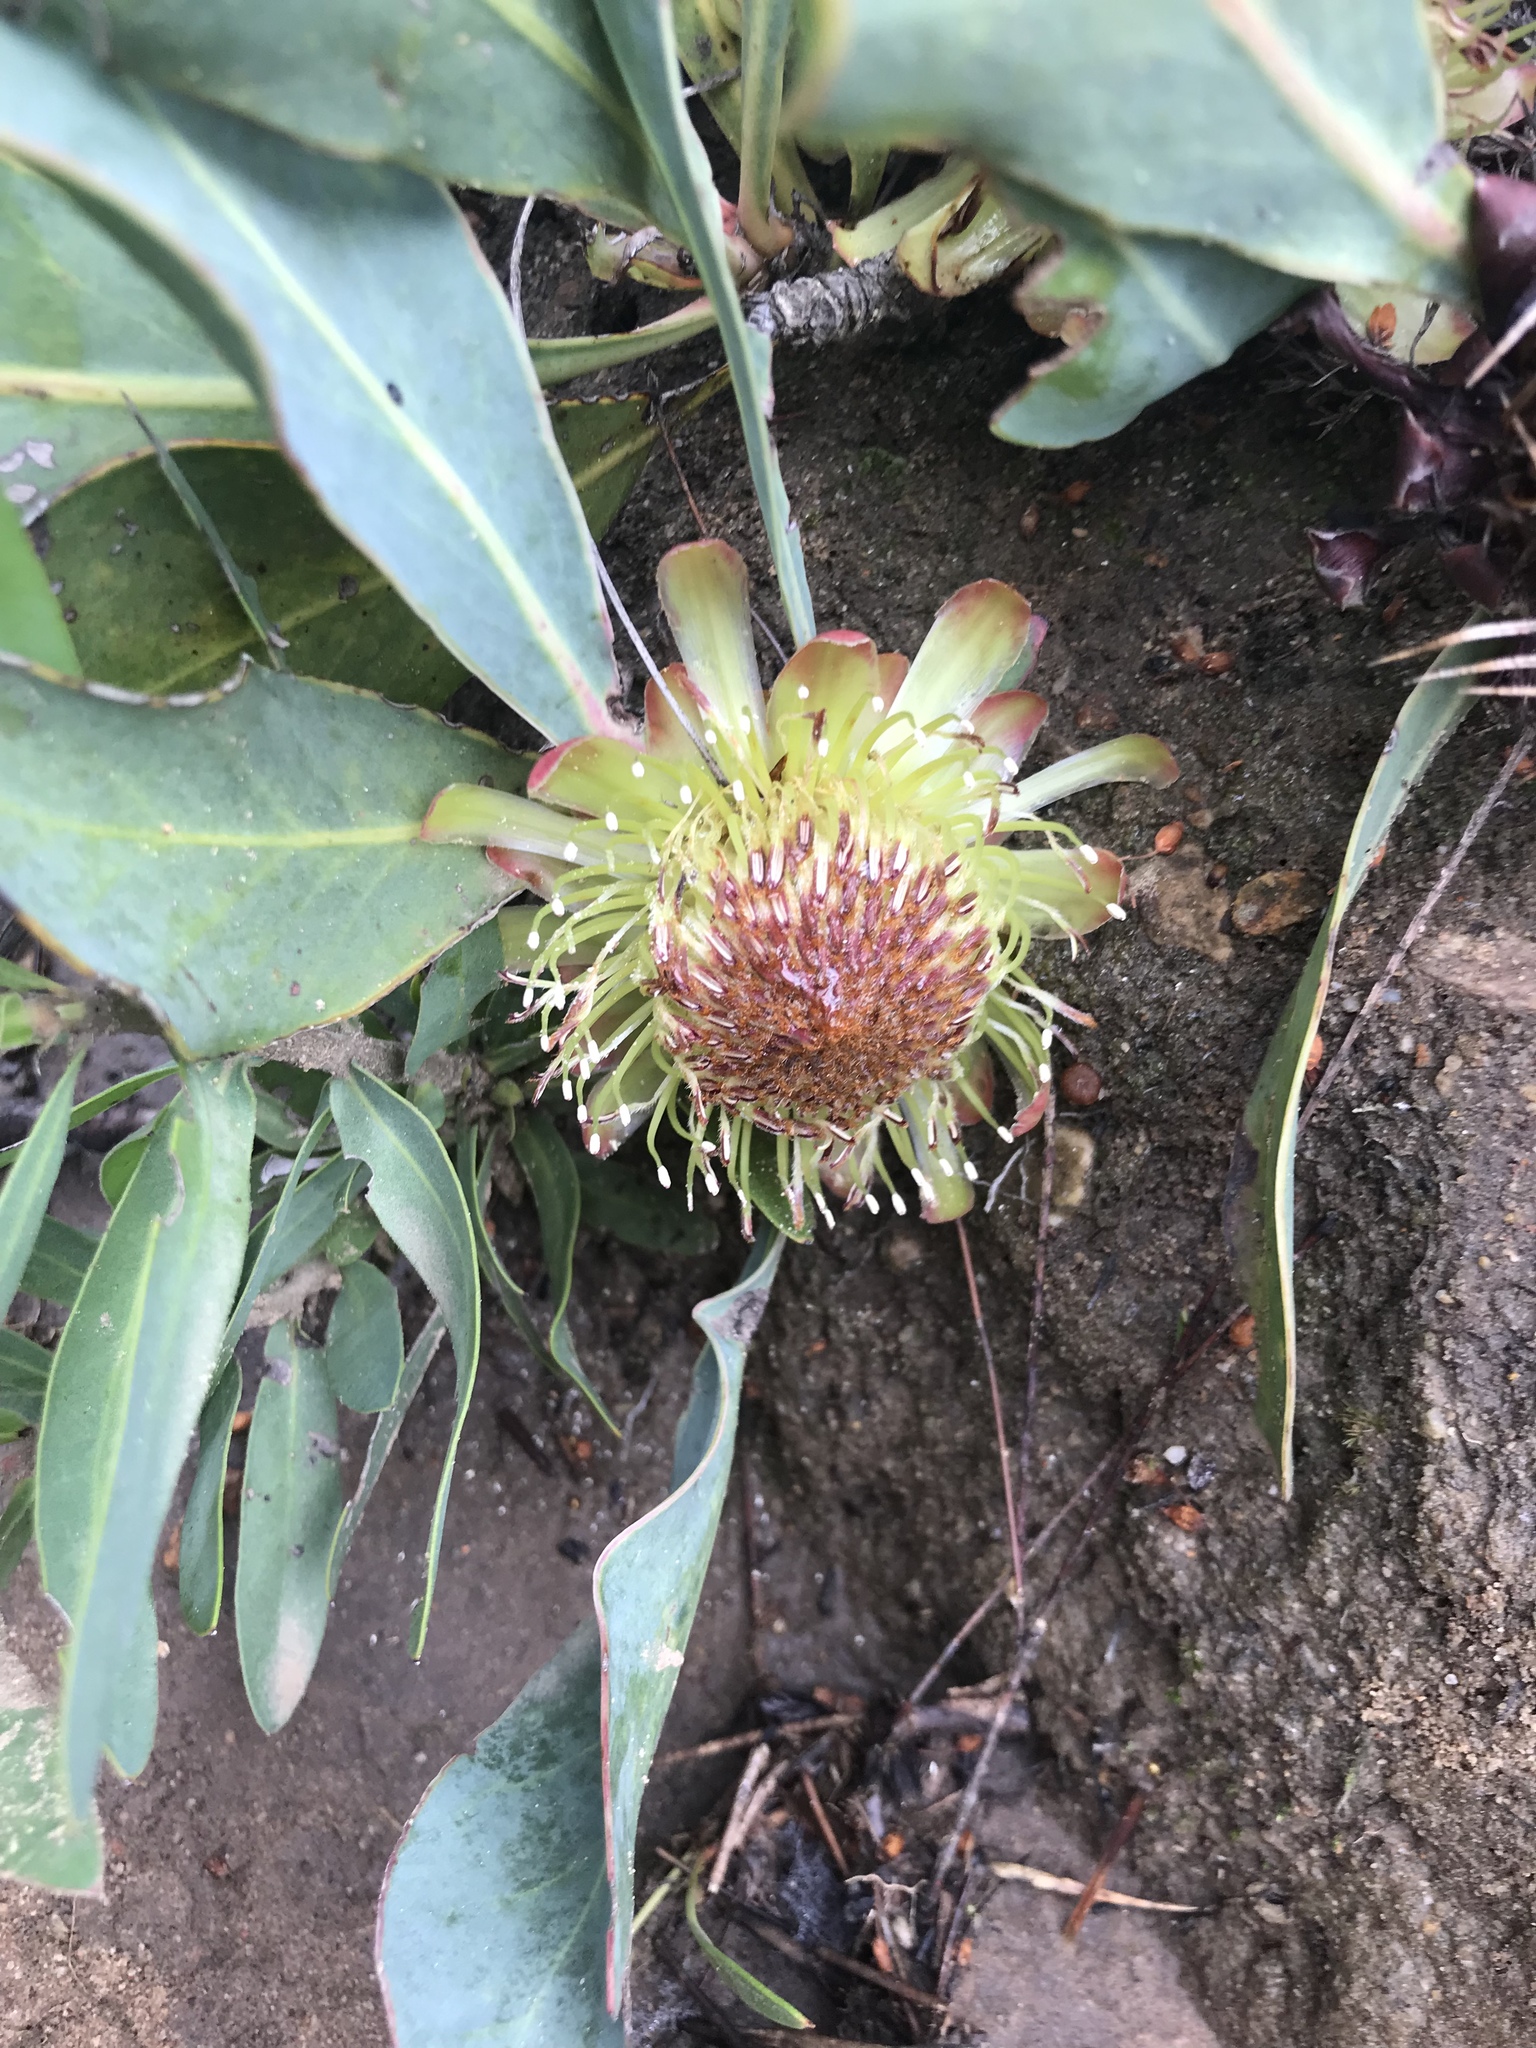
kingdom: Plantae
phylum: Tracheophyta
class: Magnoliopsida
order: Proteales
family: Proteaceae
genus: Protea
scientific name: Protea acaulos
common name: Common ground sugarbush
